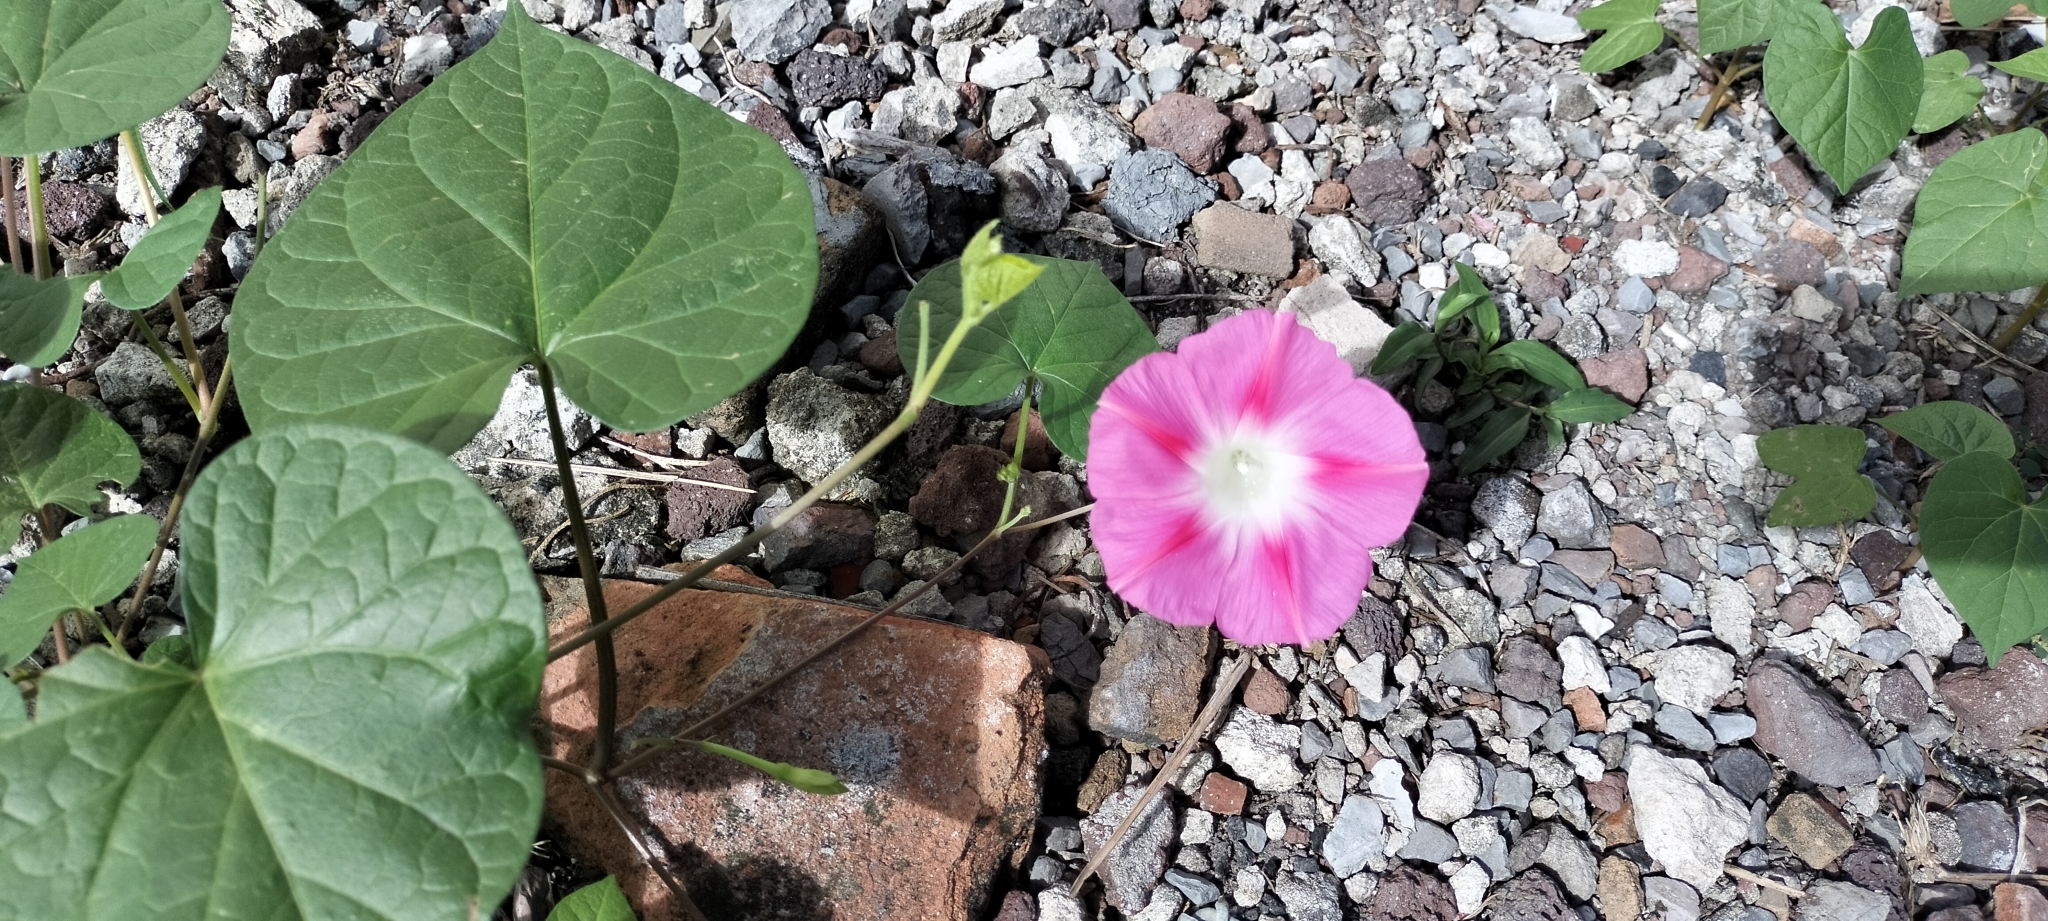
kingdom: Plantae
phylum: Tracheophyta
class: Magnoliopsida
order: Solanales
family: Convolvulaceae
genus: Ipomoea
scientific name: Ipomoea purpurea
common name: Common morning-glory
